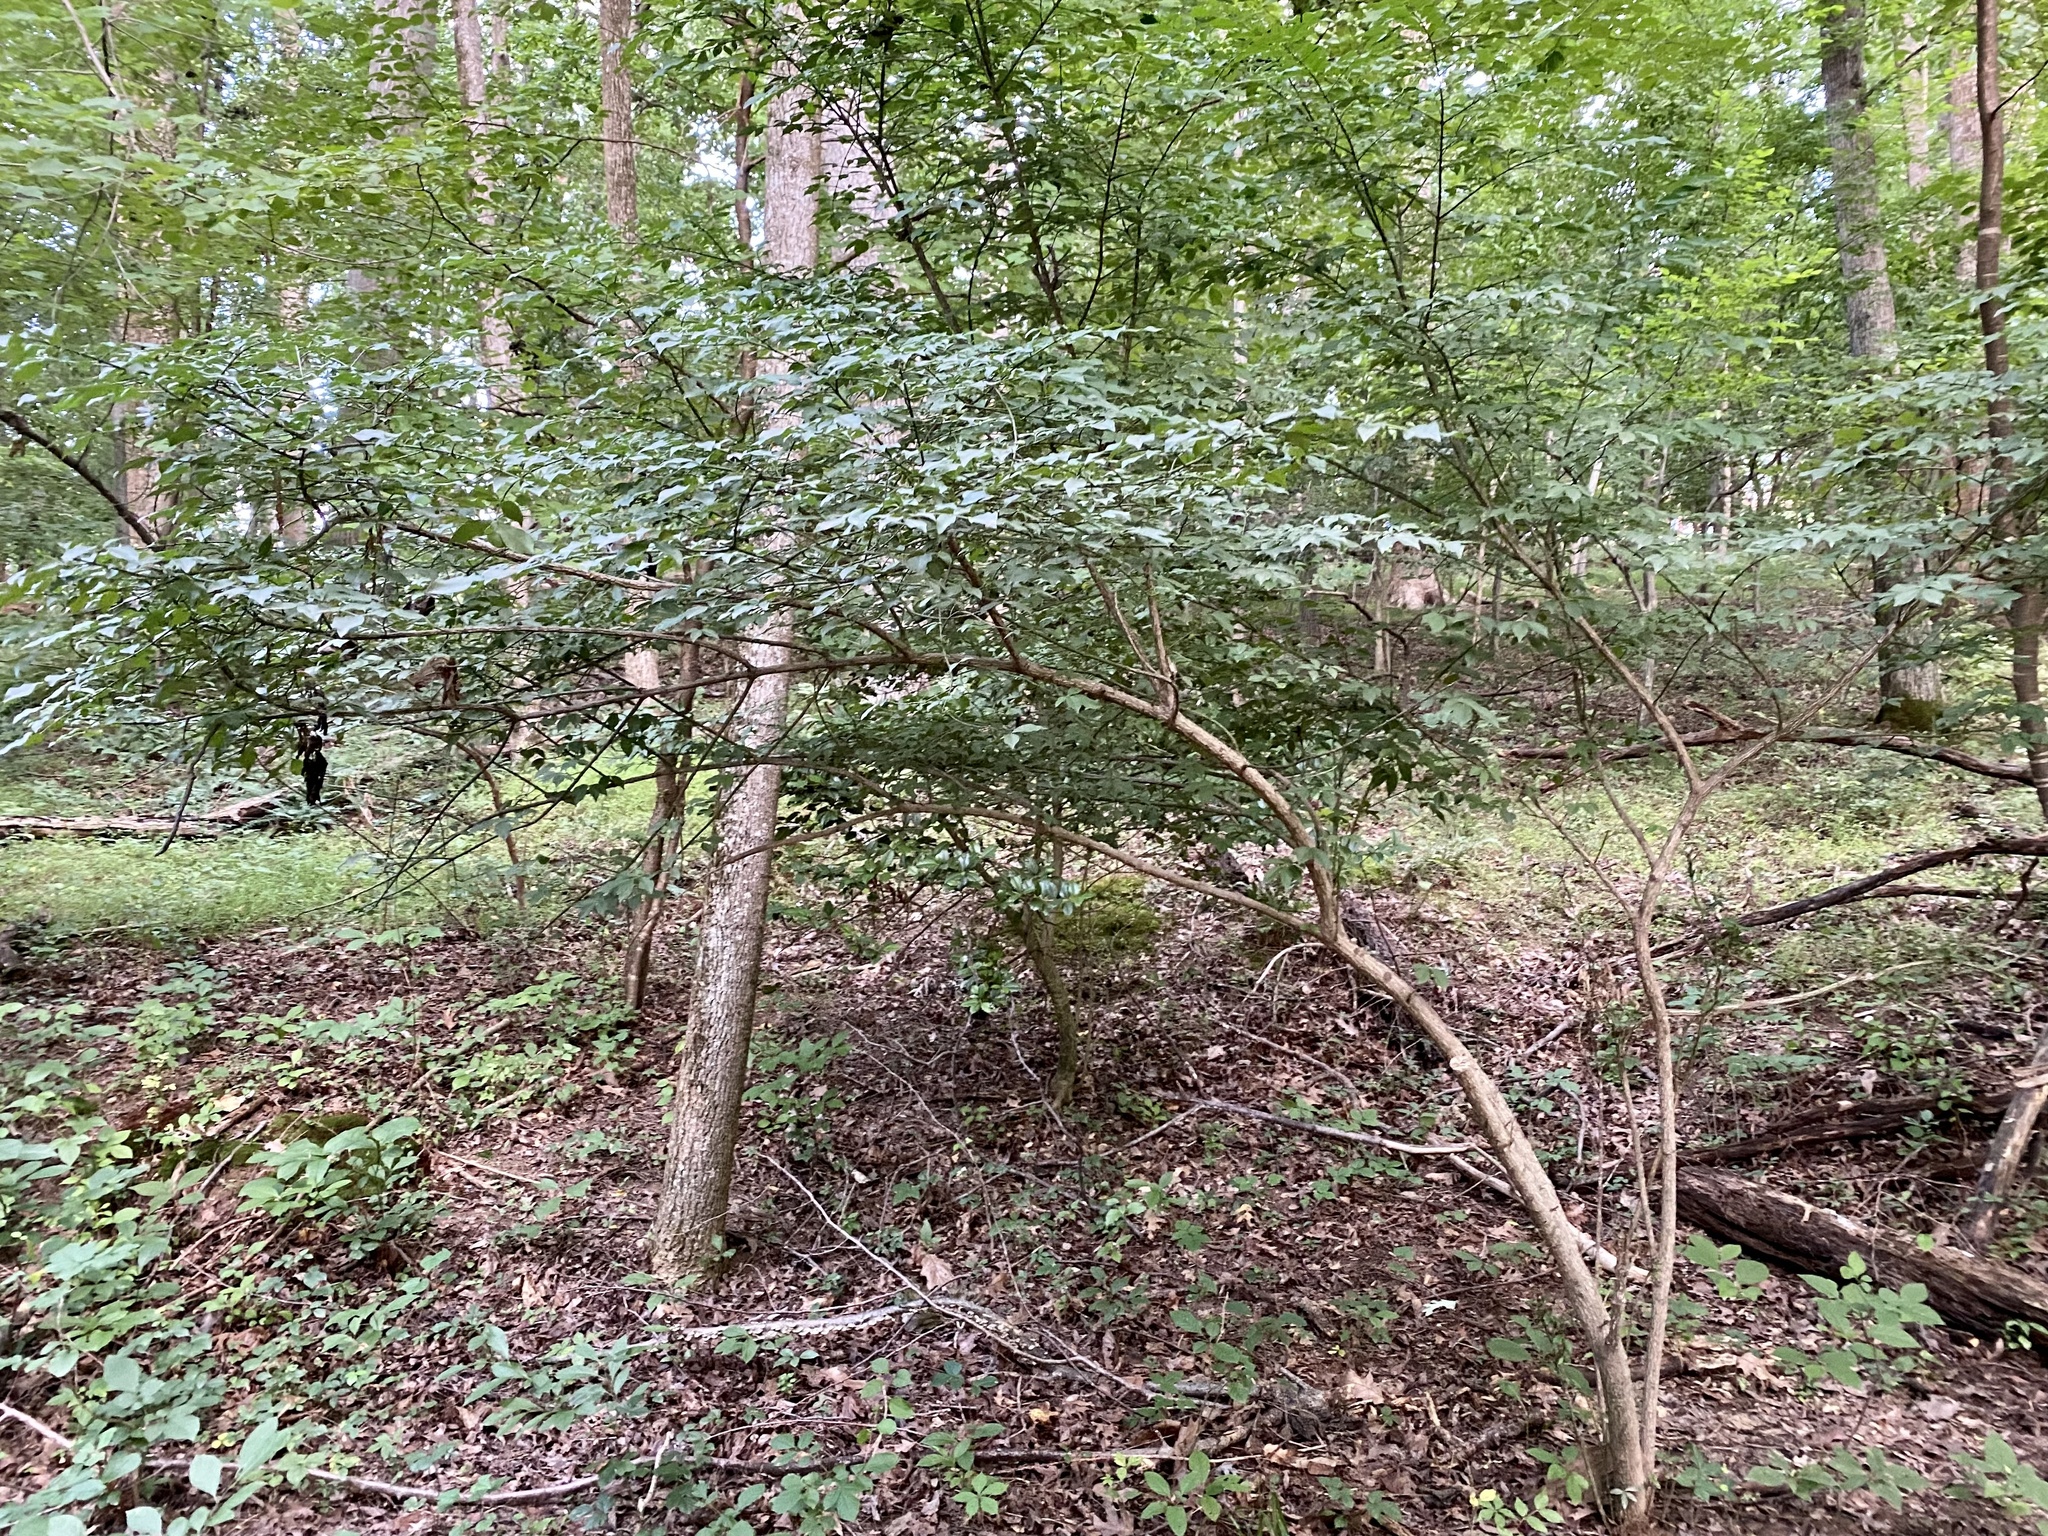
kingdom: Plantae
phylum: Tracheophyta
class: Magnoliopsida
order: Celastrales
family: Celastraceae
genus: Euonymus
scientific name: Euonymus alatus
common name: Winged euonymus
